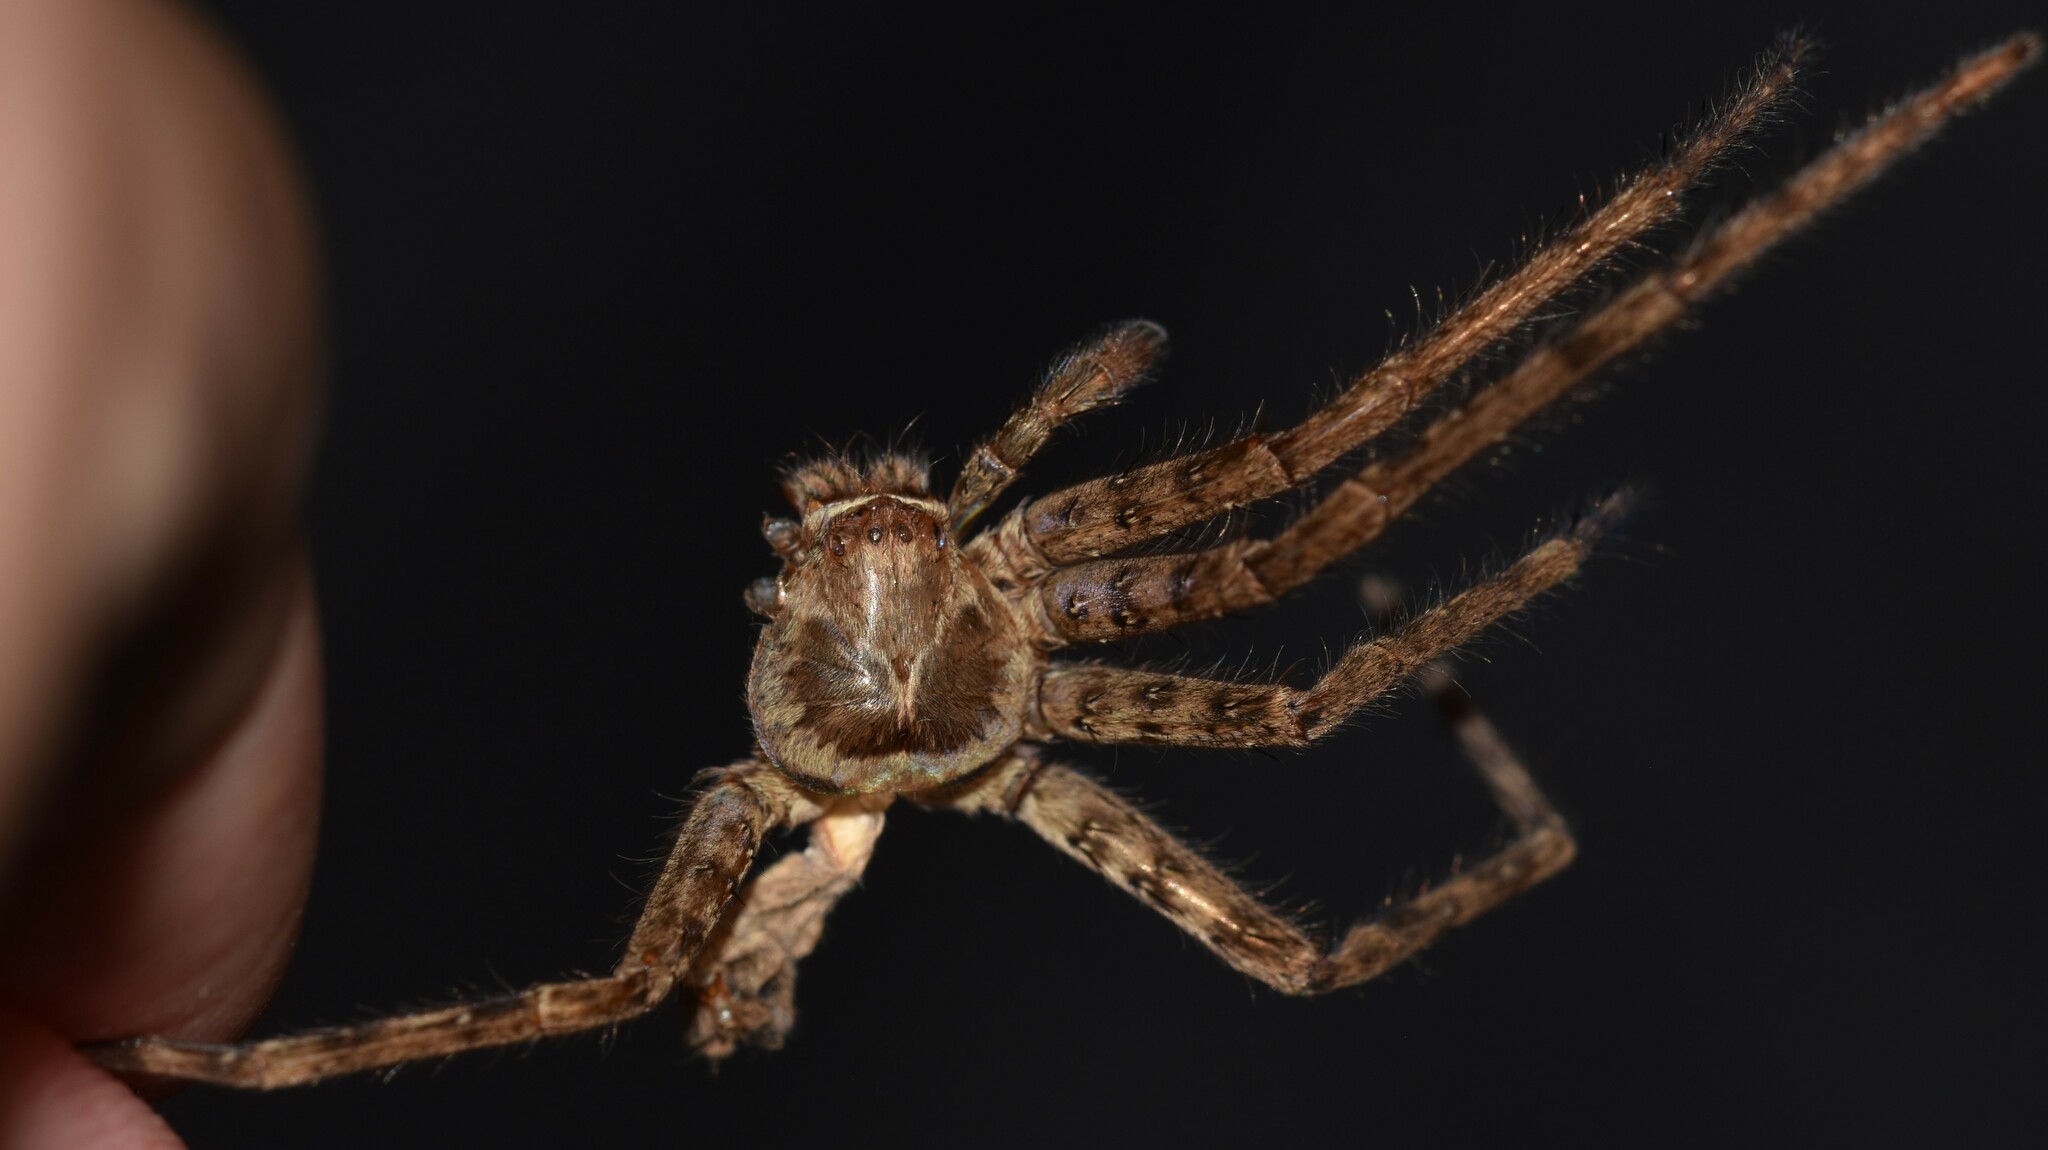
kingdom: Animalia
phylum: Arthropoda
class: Arachnida
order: Araneae
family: Sparassidae
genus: Heteropoda
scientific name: Heteropoda venatoria
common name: Huntsman spider
